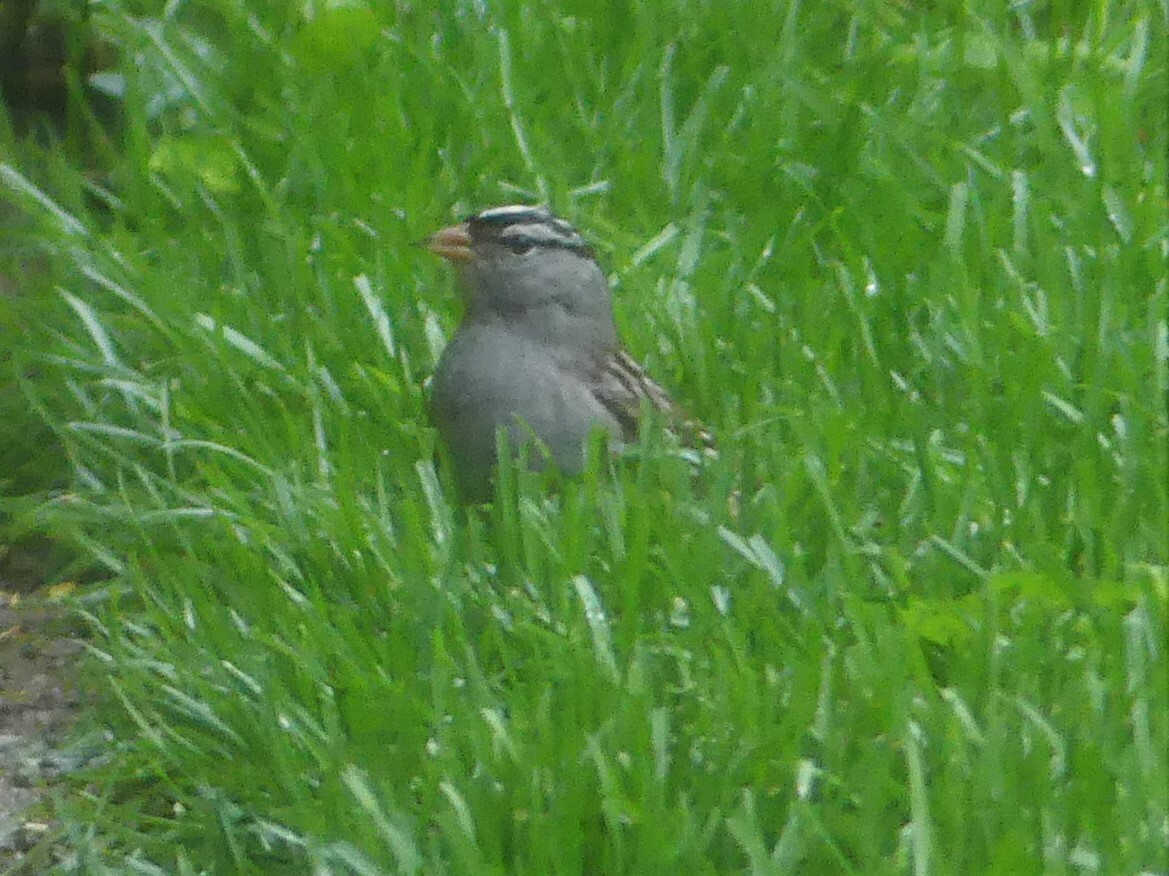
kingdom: Animalia
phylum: Chordata
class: Aves
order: Passeriformes
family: Passerellidae
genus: Zonotrichia
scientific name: Zonotrichia leucophrys
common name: White-crowned sparrow
